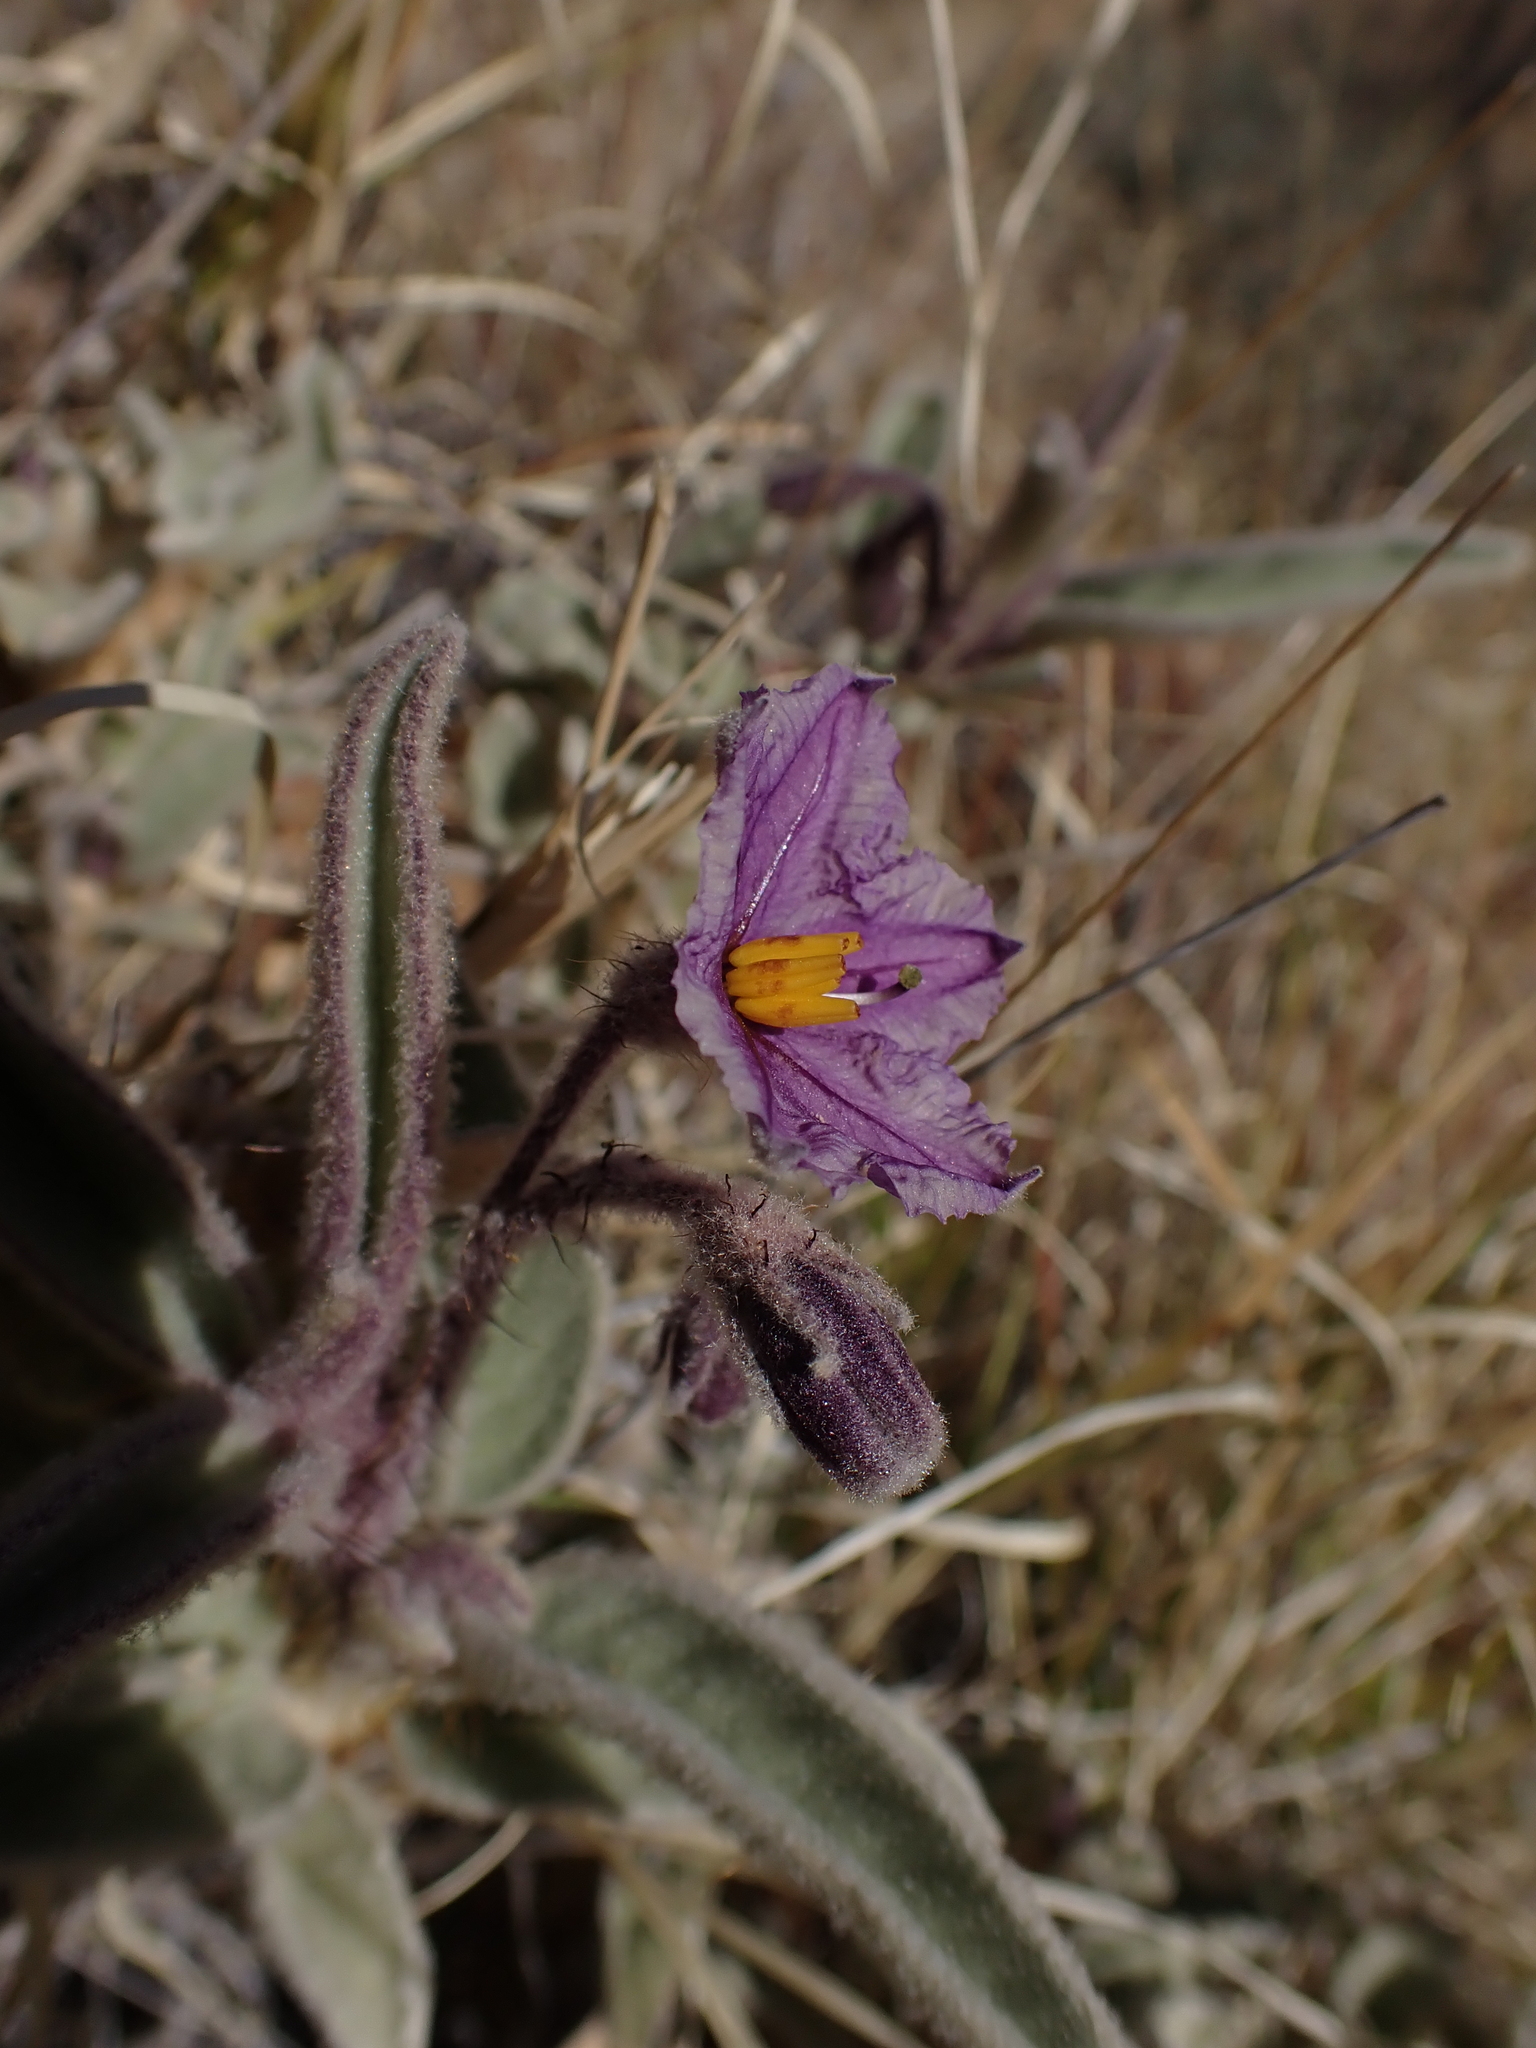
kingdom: Plantae
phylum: Tracheophyta
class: Magnoliopsida
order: Solanales
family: Solanaceae
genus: Solanum
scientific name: Solanum ellipticum
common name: Potato-bush
